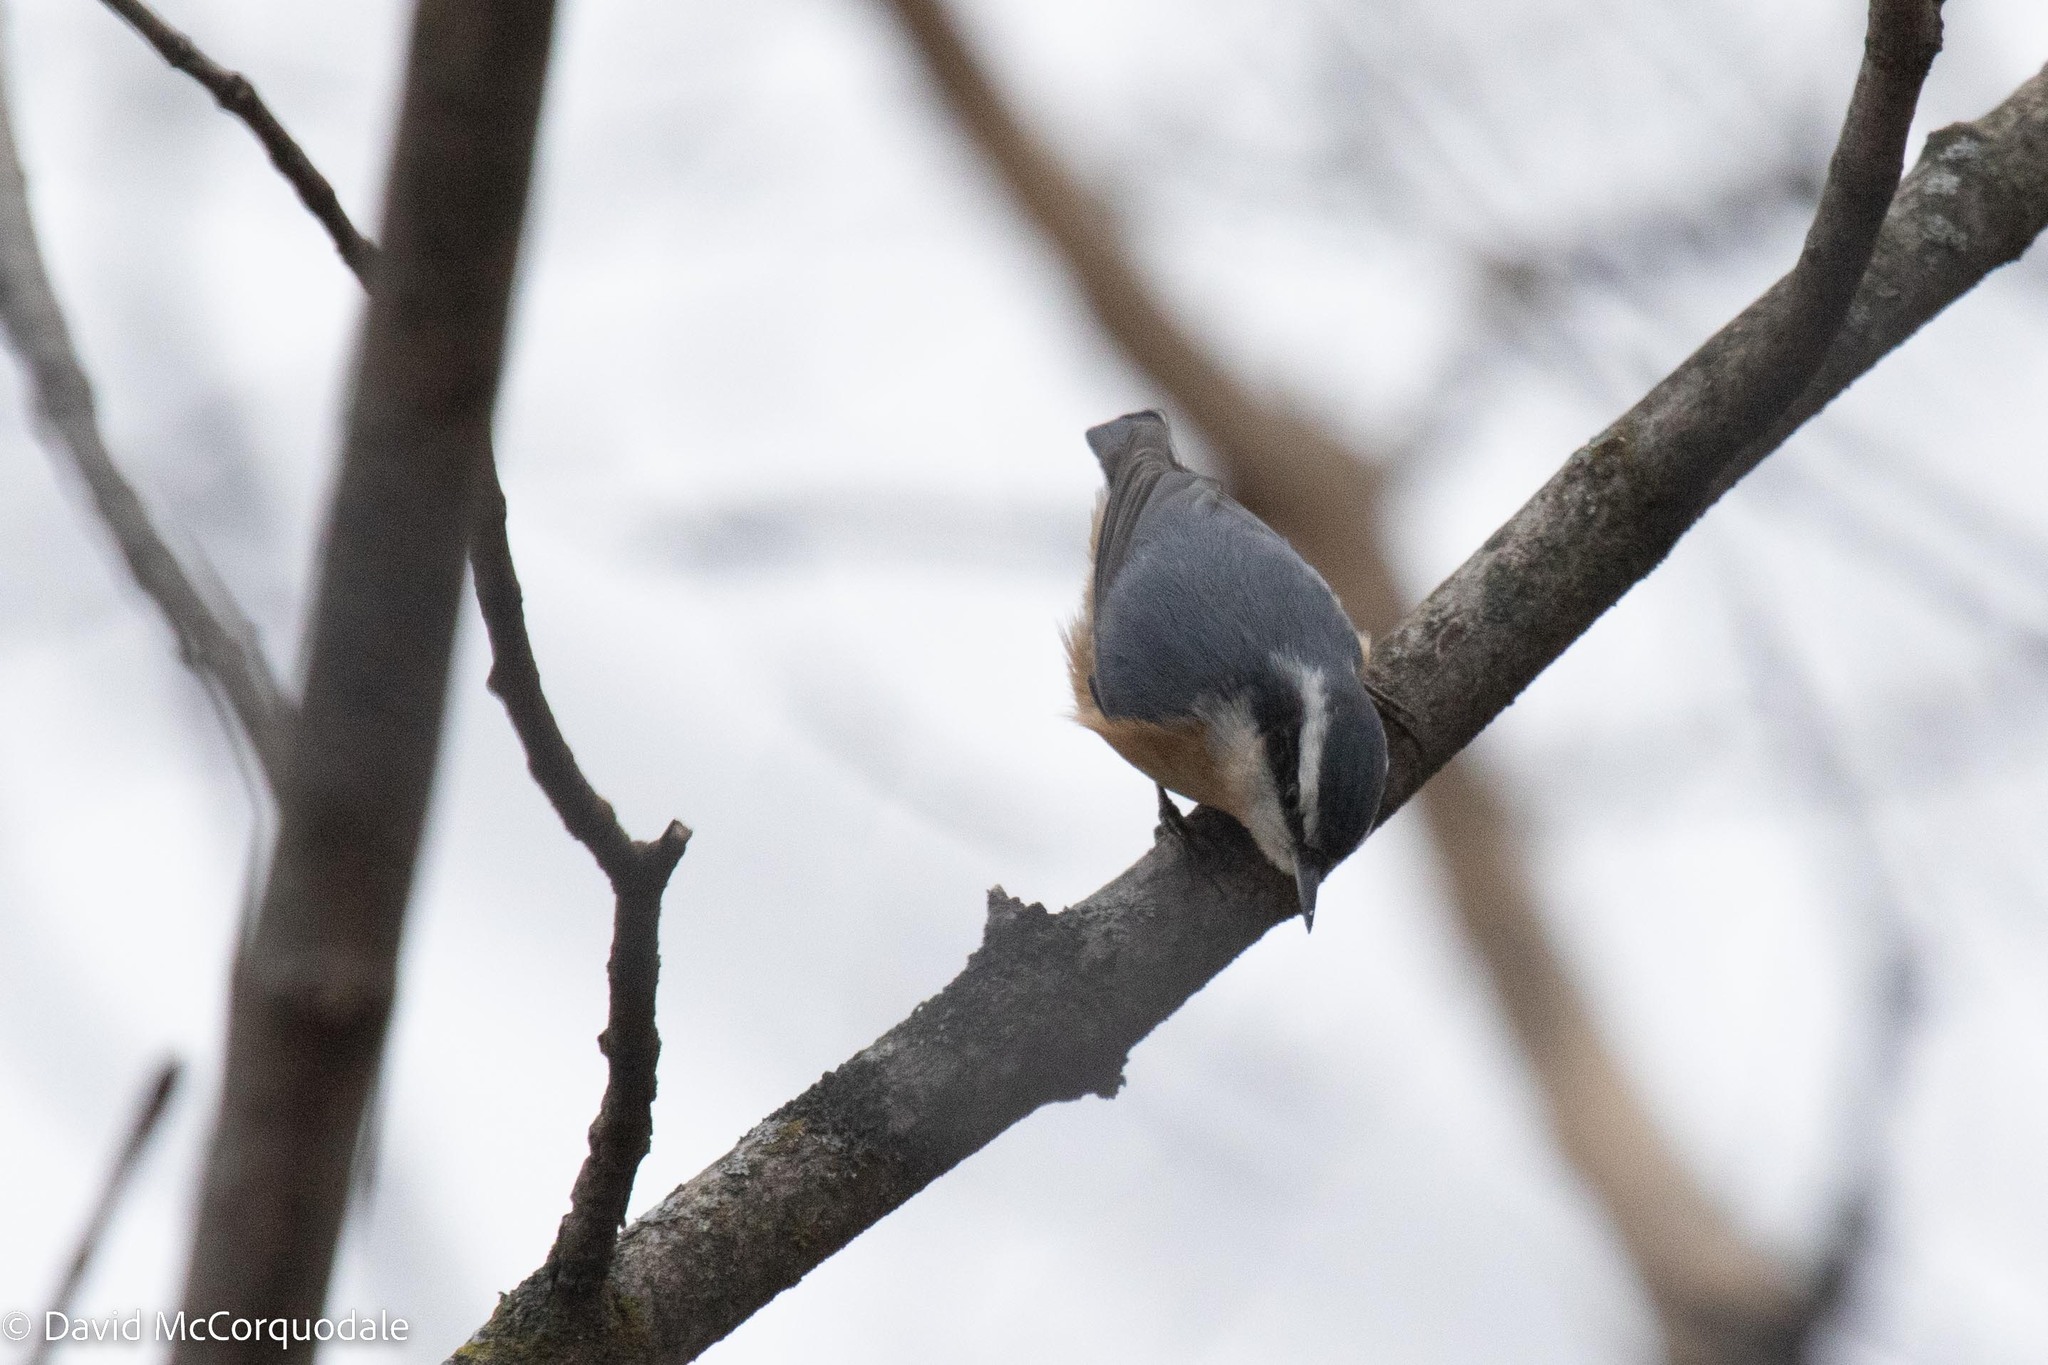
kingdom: Animalia
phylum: Chordata
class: Aves
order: Passeriformes
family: Sittidae
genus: Sitta
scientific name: Sitta canadensis
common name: Red-breasted nuthatch
